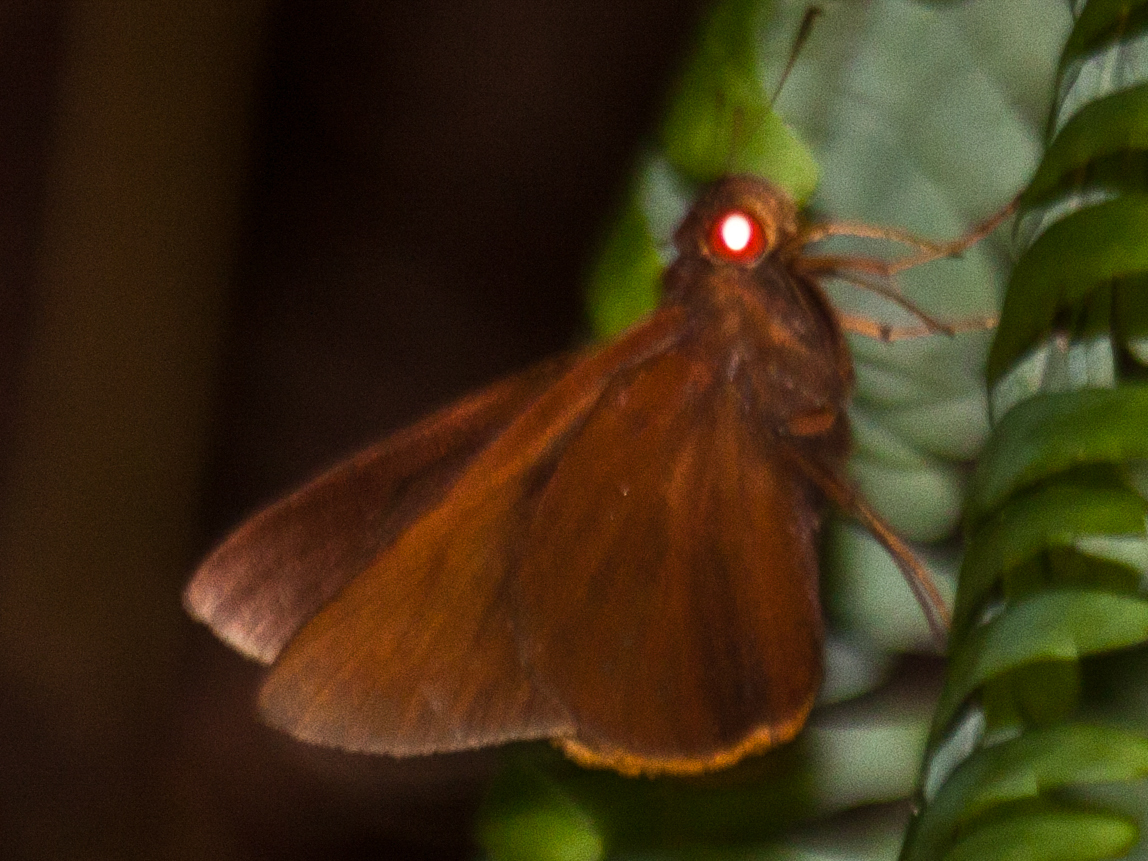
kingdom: Animalia
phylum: Arthropoda
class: Insecta
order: Lepidoptera
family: Hesperiidae
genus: Matapa
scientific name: Matapa druna
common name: Grey-brand redeye
